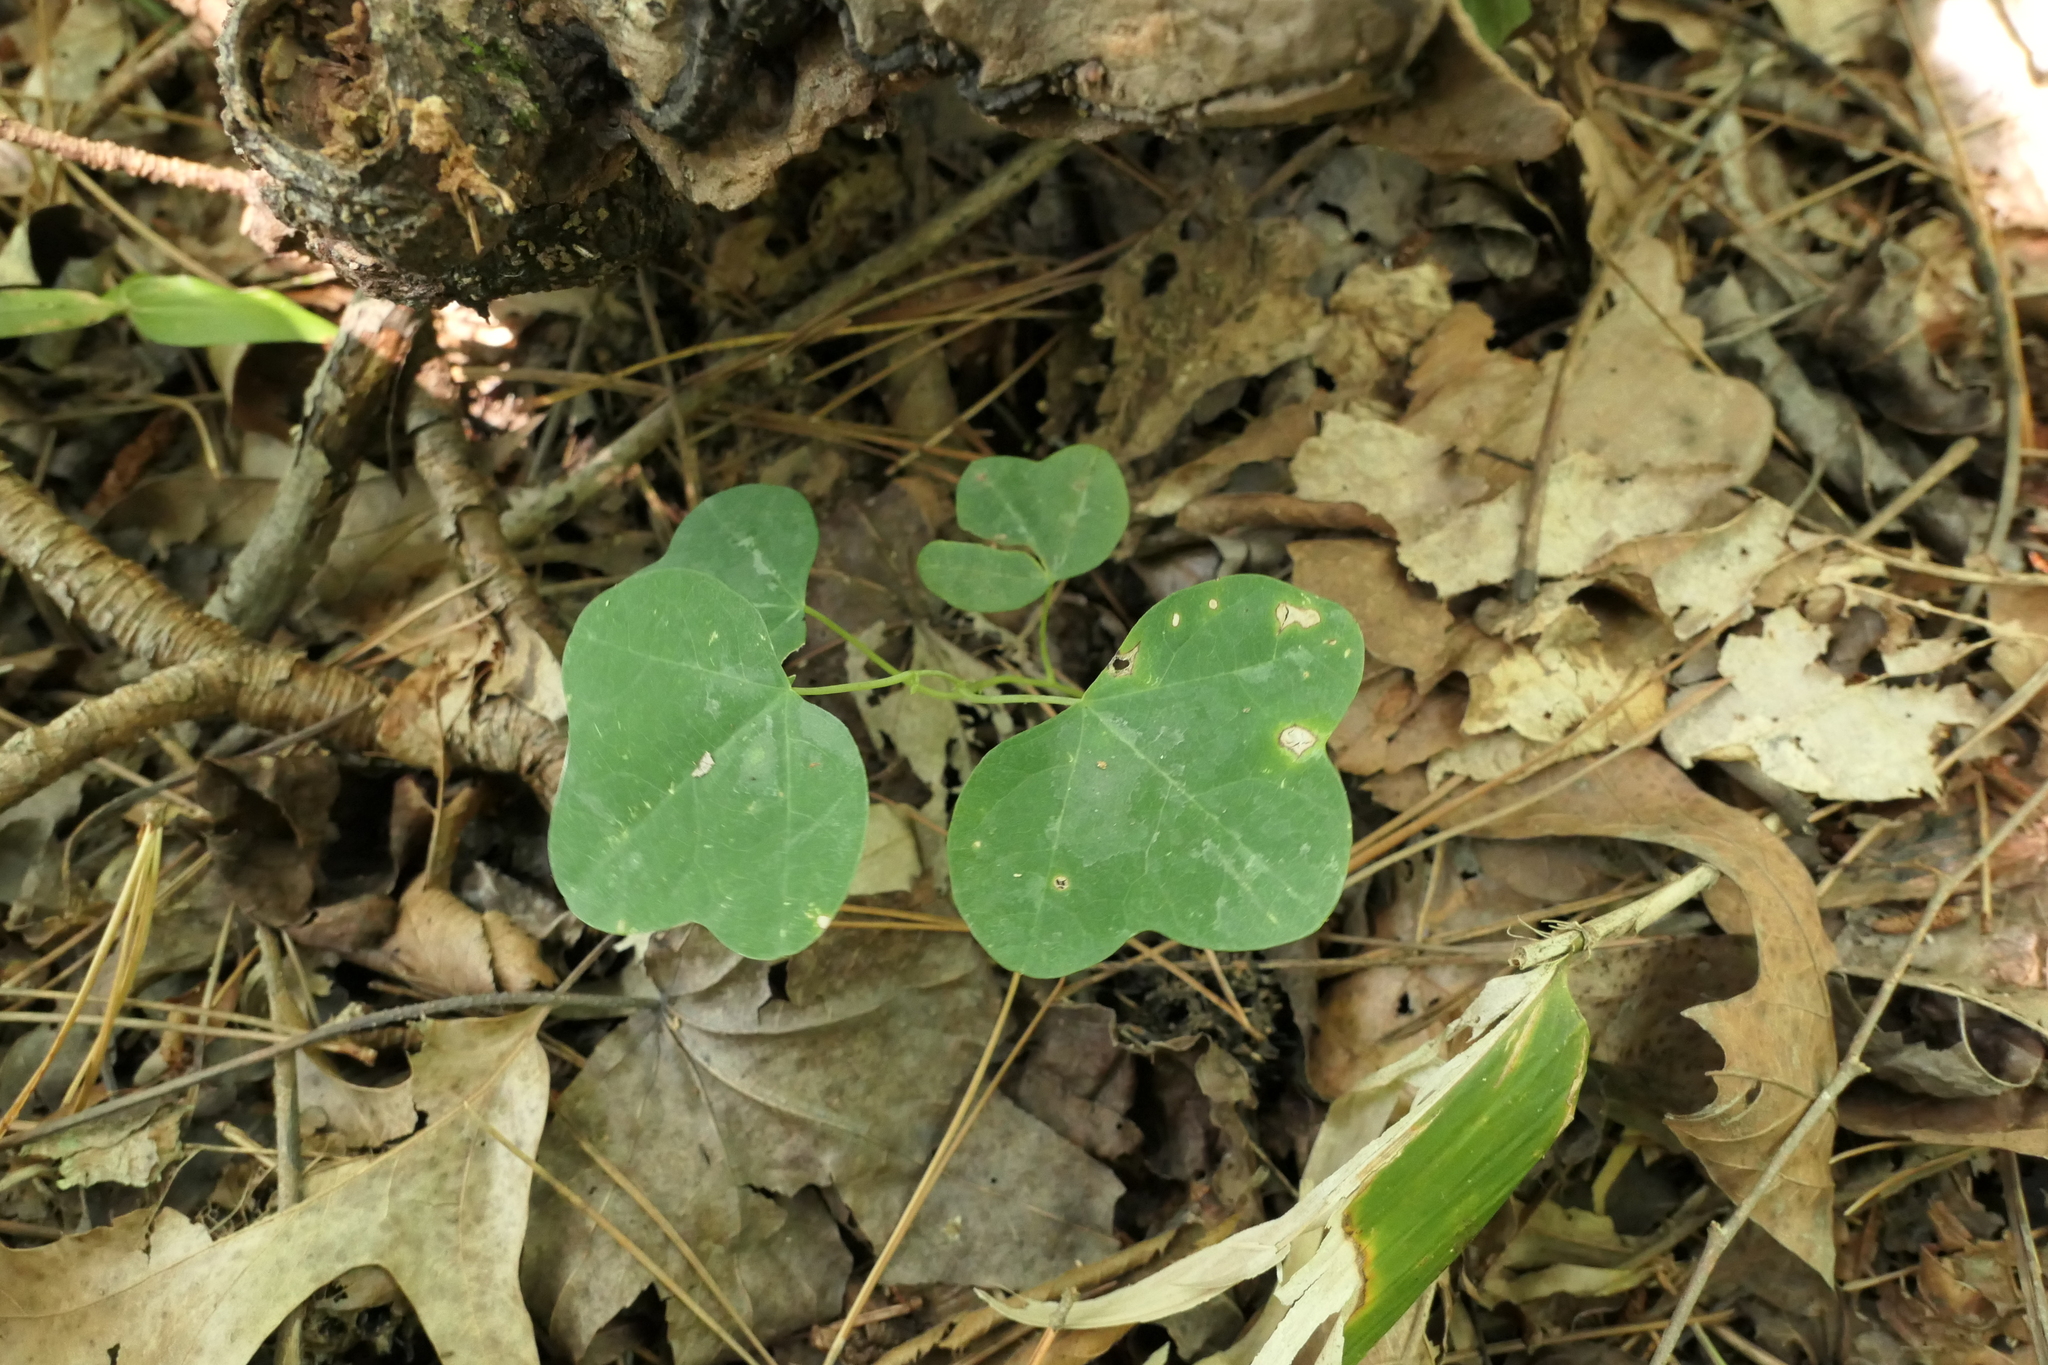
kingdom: Plantae
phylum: Tracheophyta
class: Magnoliopsida
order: Malpighiales
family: Passifloraceae
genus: Passiflora
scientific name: Passiflora lutea
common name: Yellow passionflower
